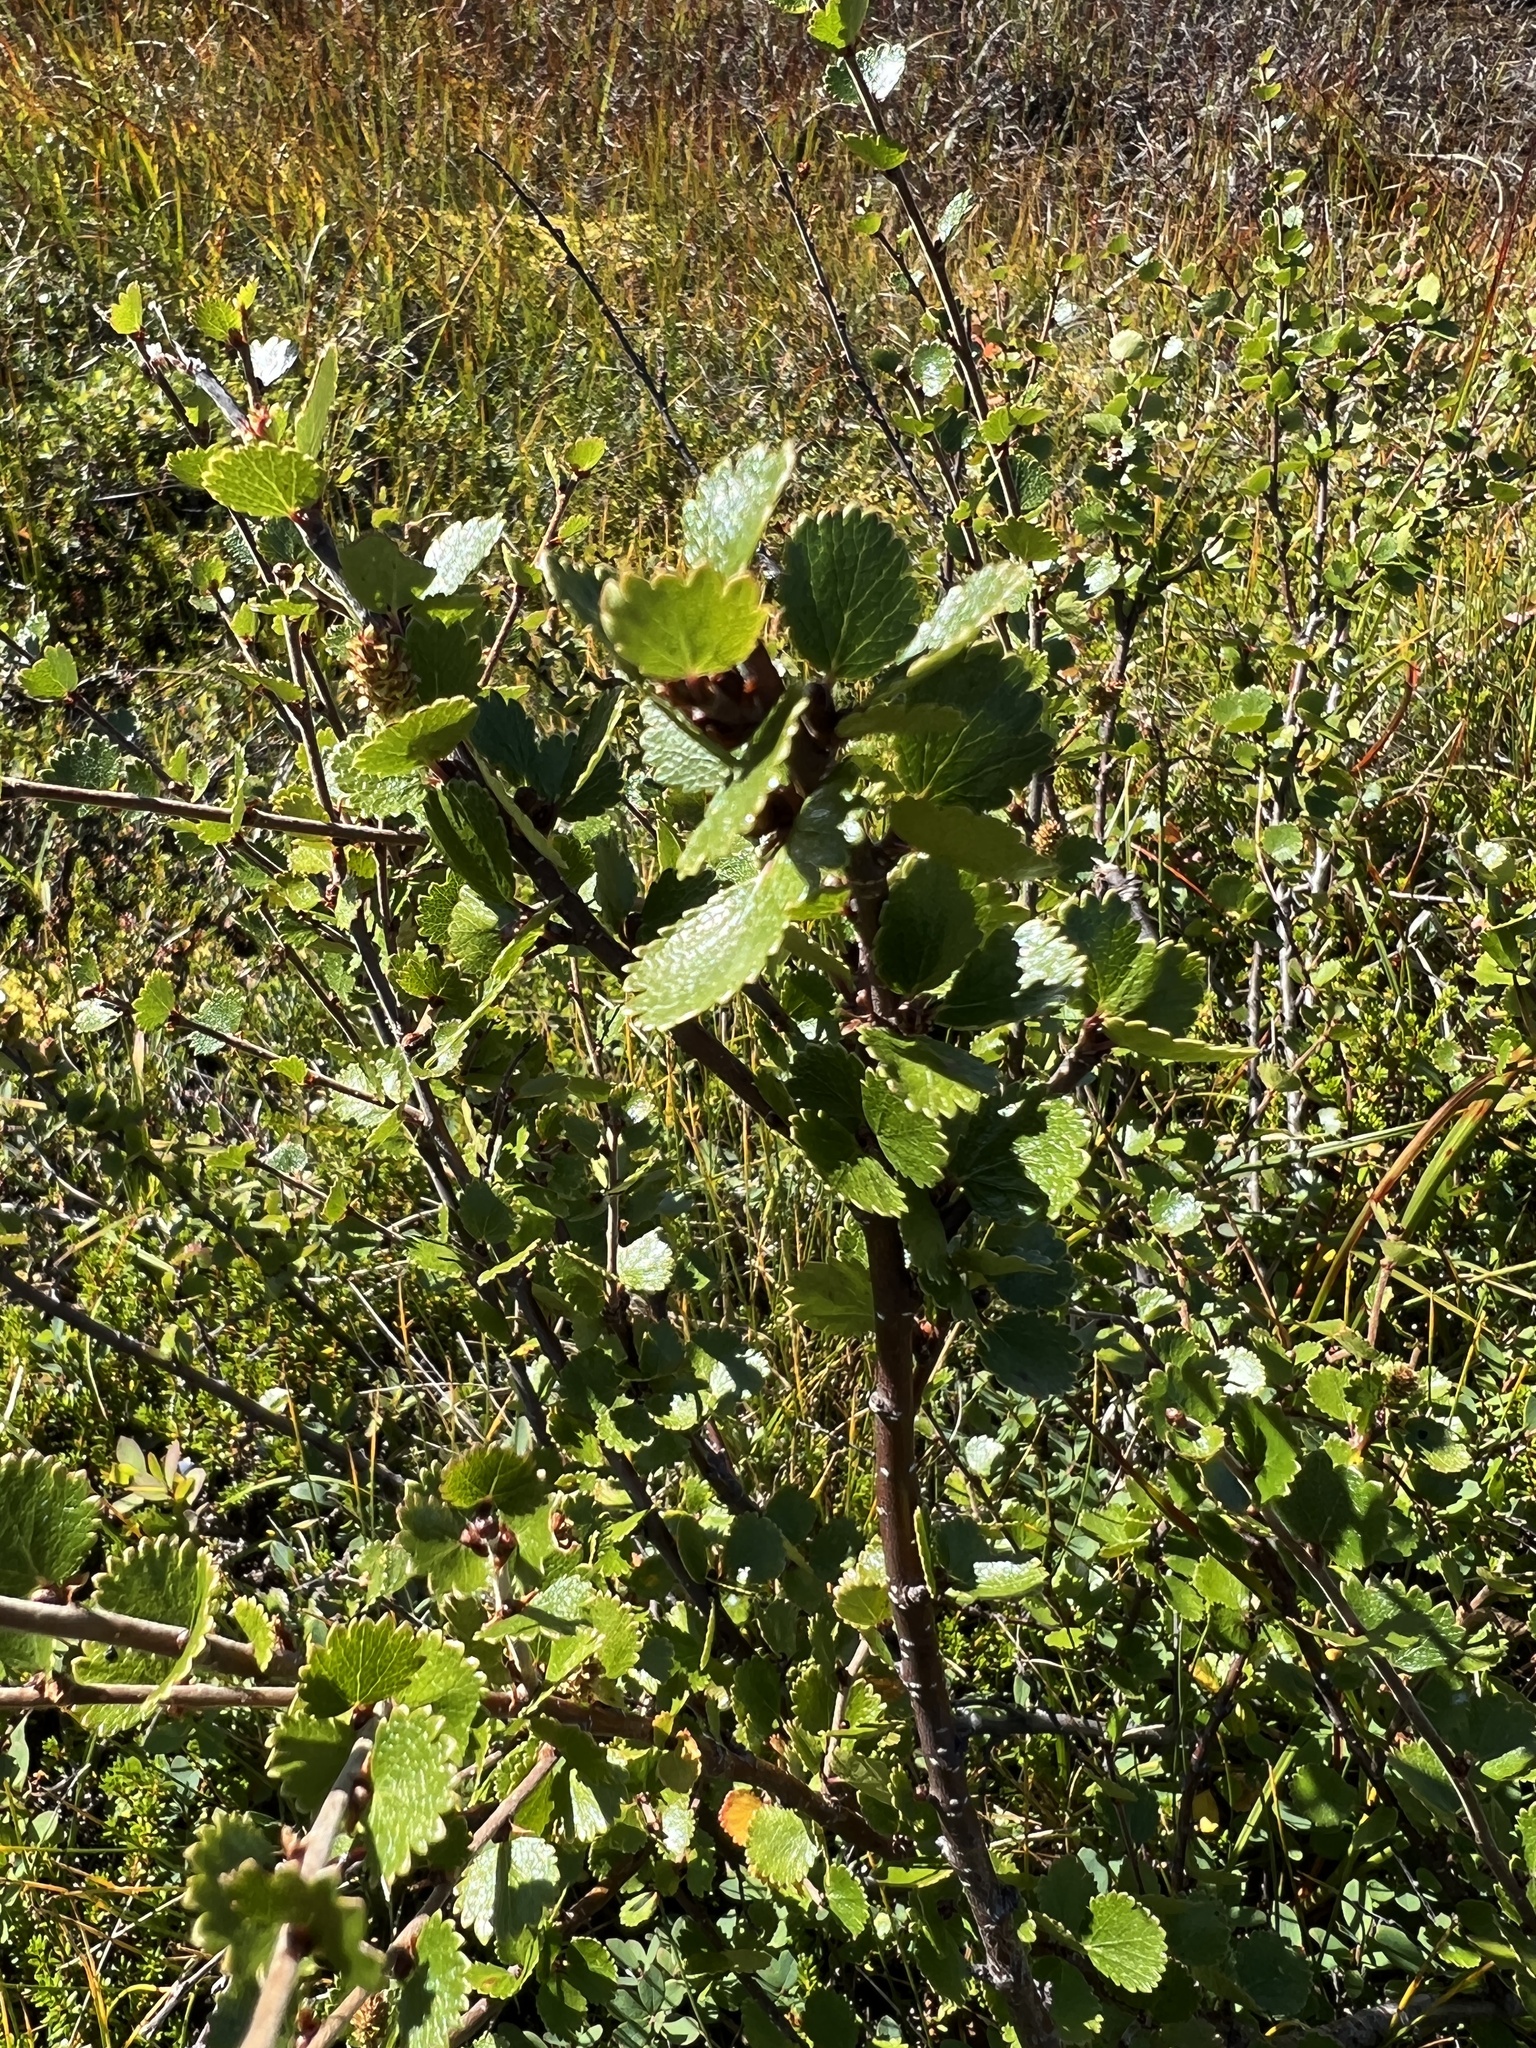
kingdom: Plantae
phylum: Tracheophyta
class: Magnoliopsida
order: Fagales
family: Betulaceae
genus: Betula
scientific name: Betula nana
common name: Arctic dwarf birch
